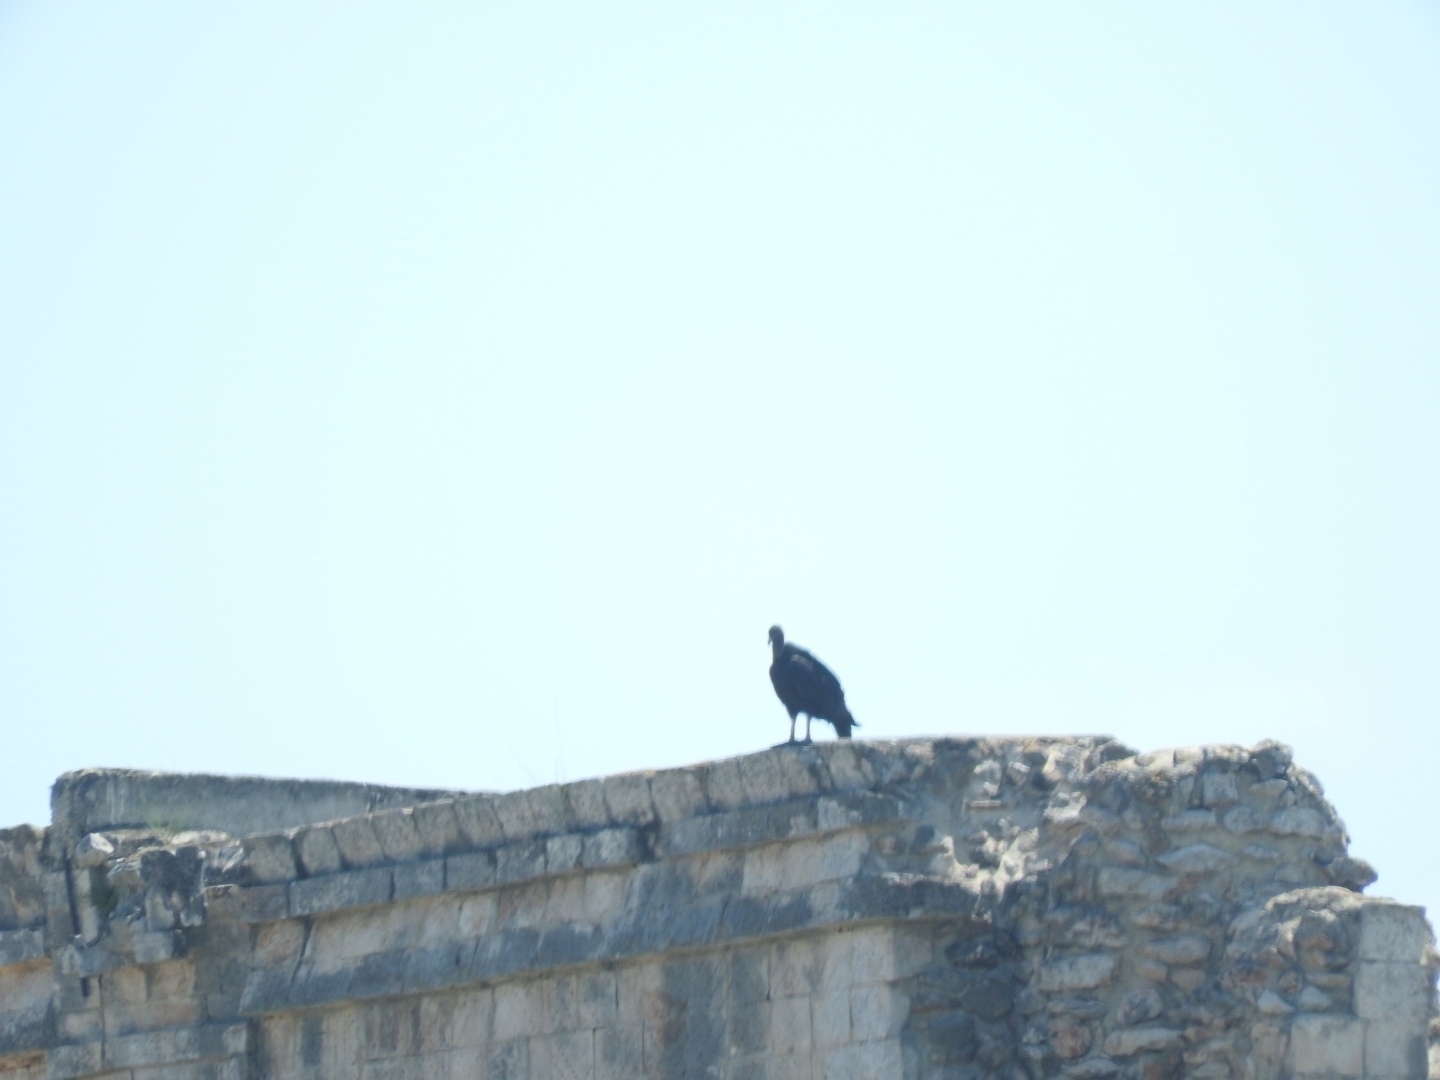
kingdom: Animalia
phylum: Chordata
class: Aves
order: Accipitriformes
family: Cathartidae
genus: Coragyps
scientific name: Coragyps atratus
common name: Black vulture
